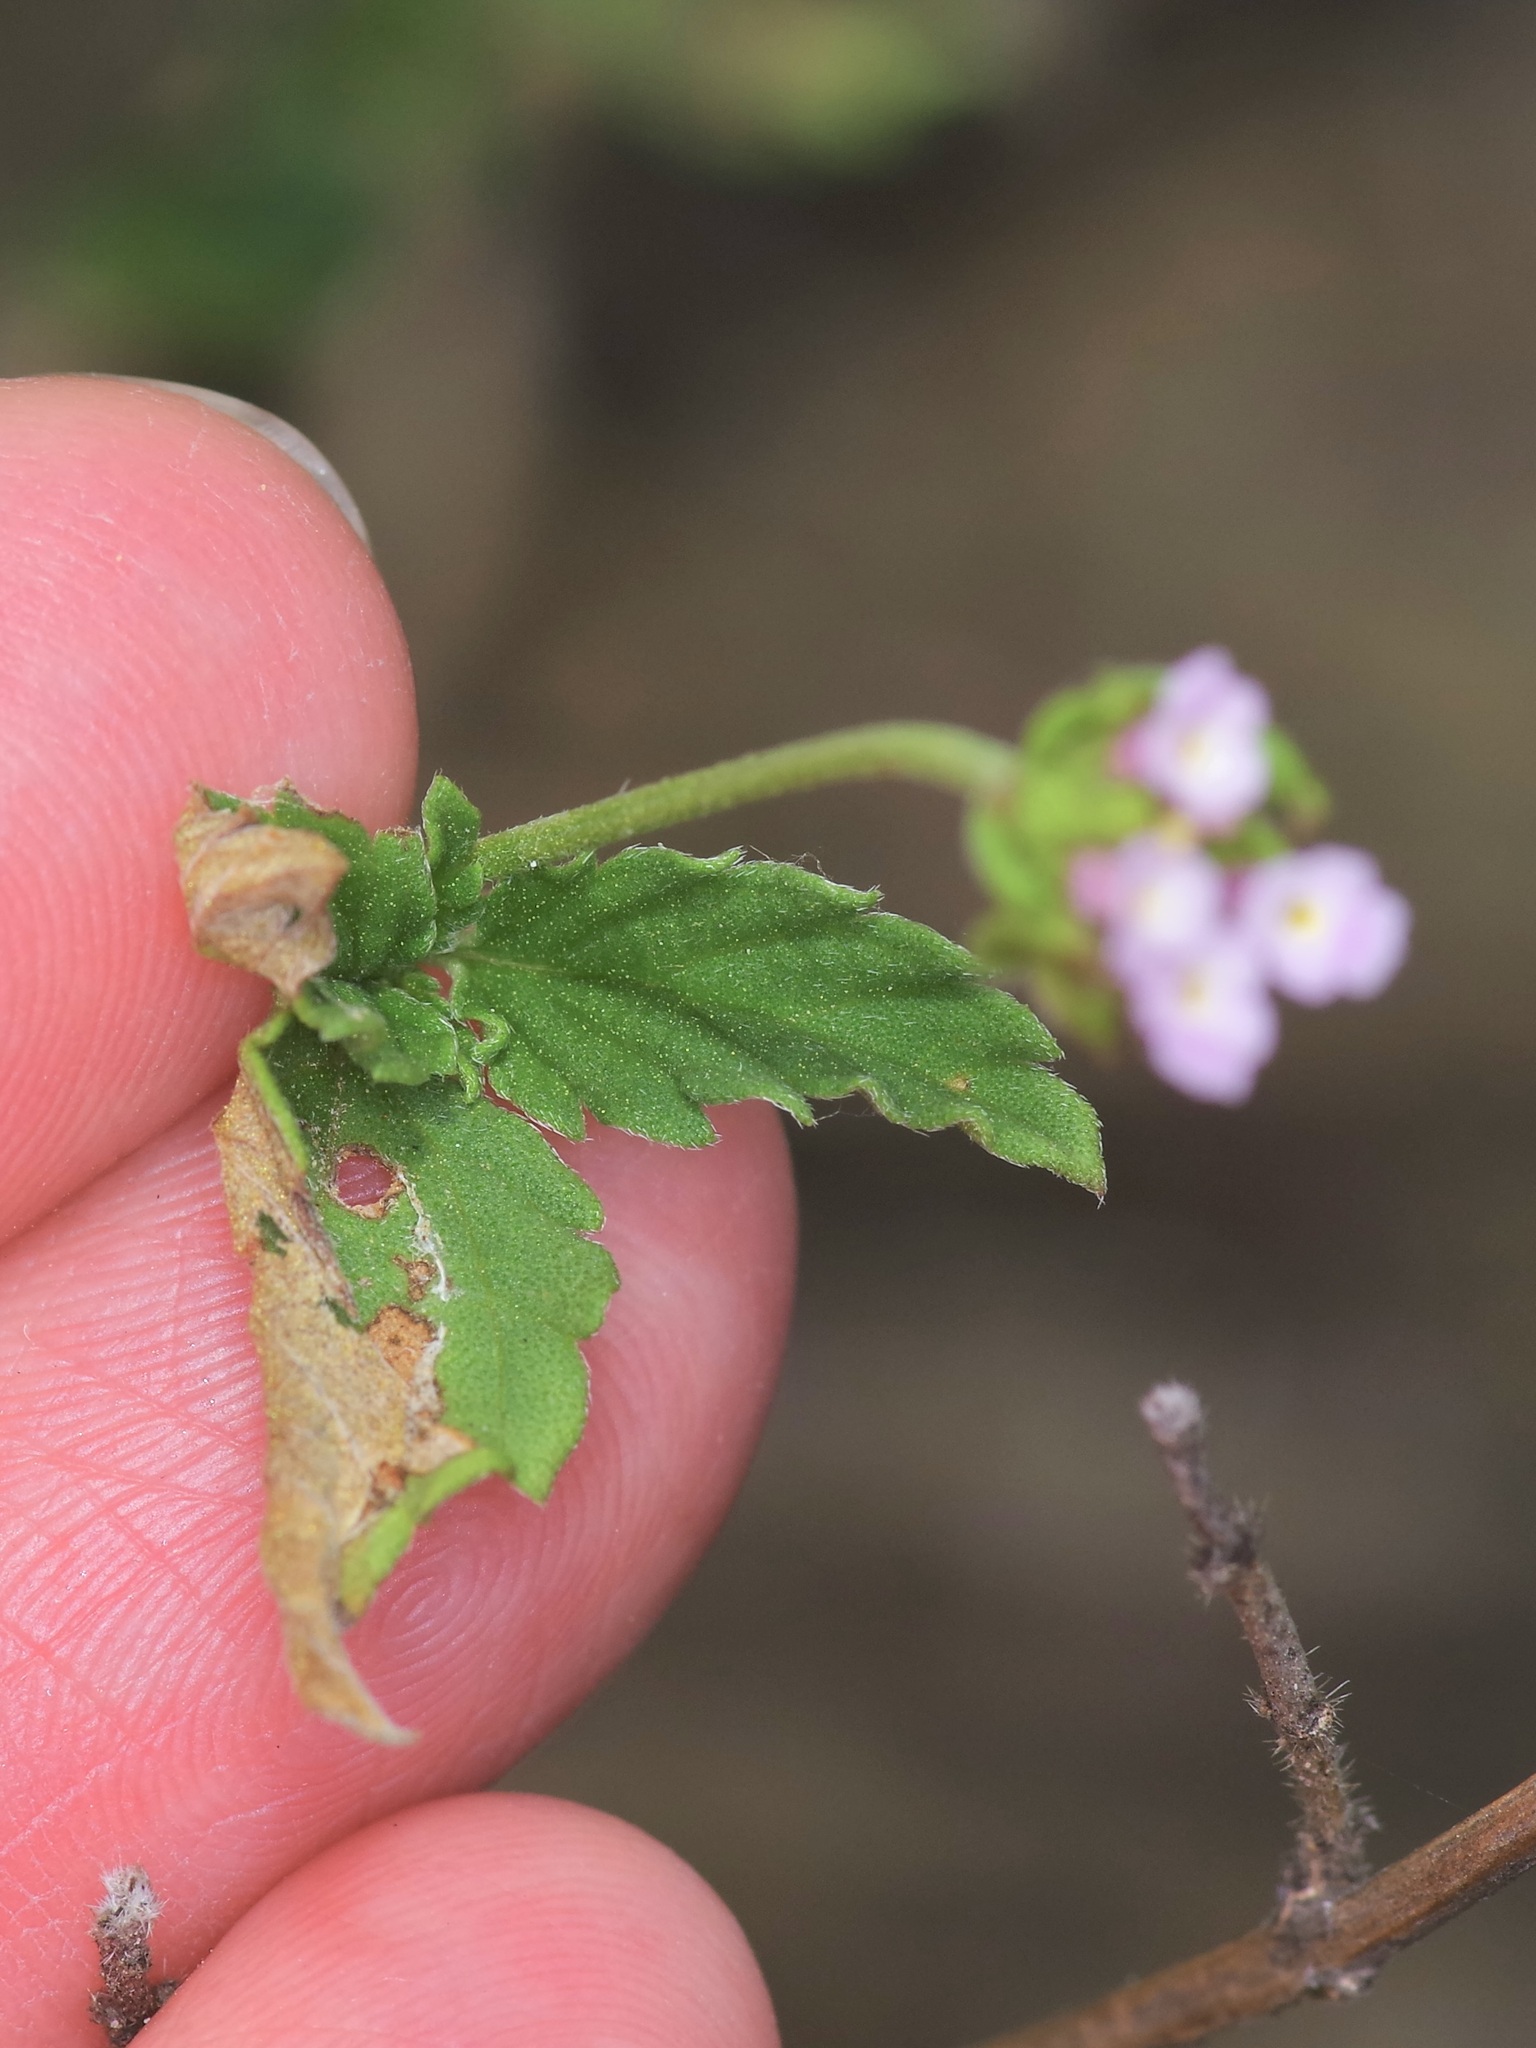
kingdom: Plantae
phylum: Tracheophyta
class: Magnoliopsida
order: Lamiales
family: Verbenaceae
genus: Lantana
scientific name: Lantana achyranthifolia
